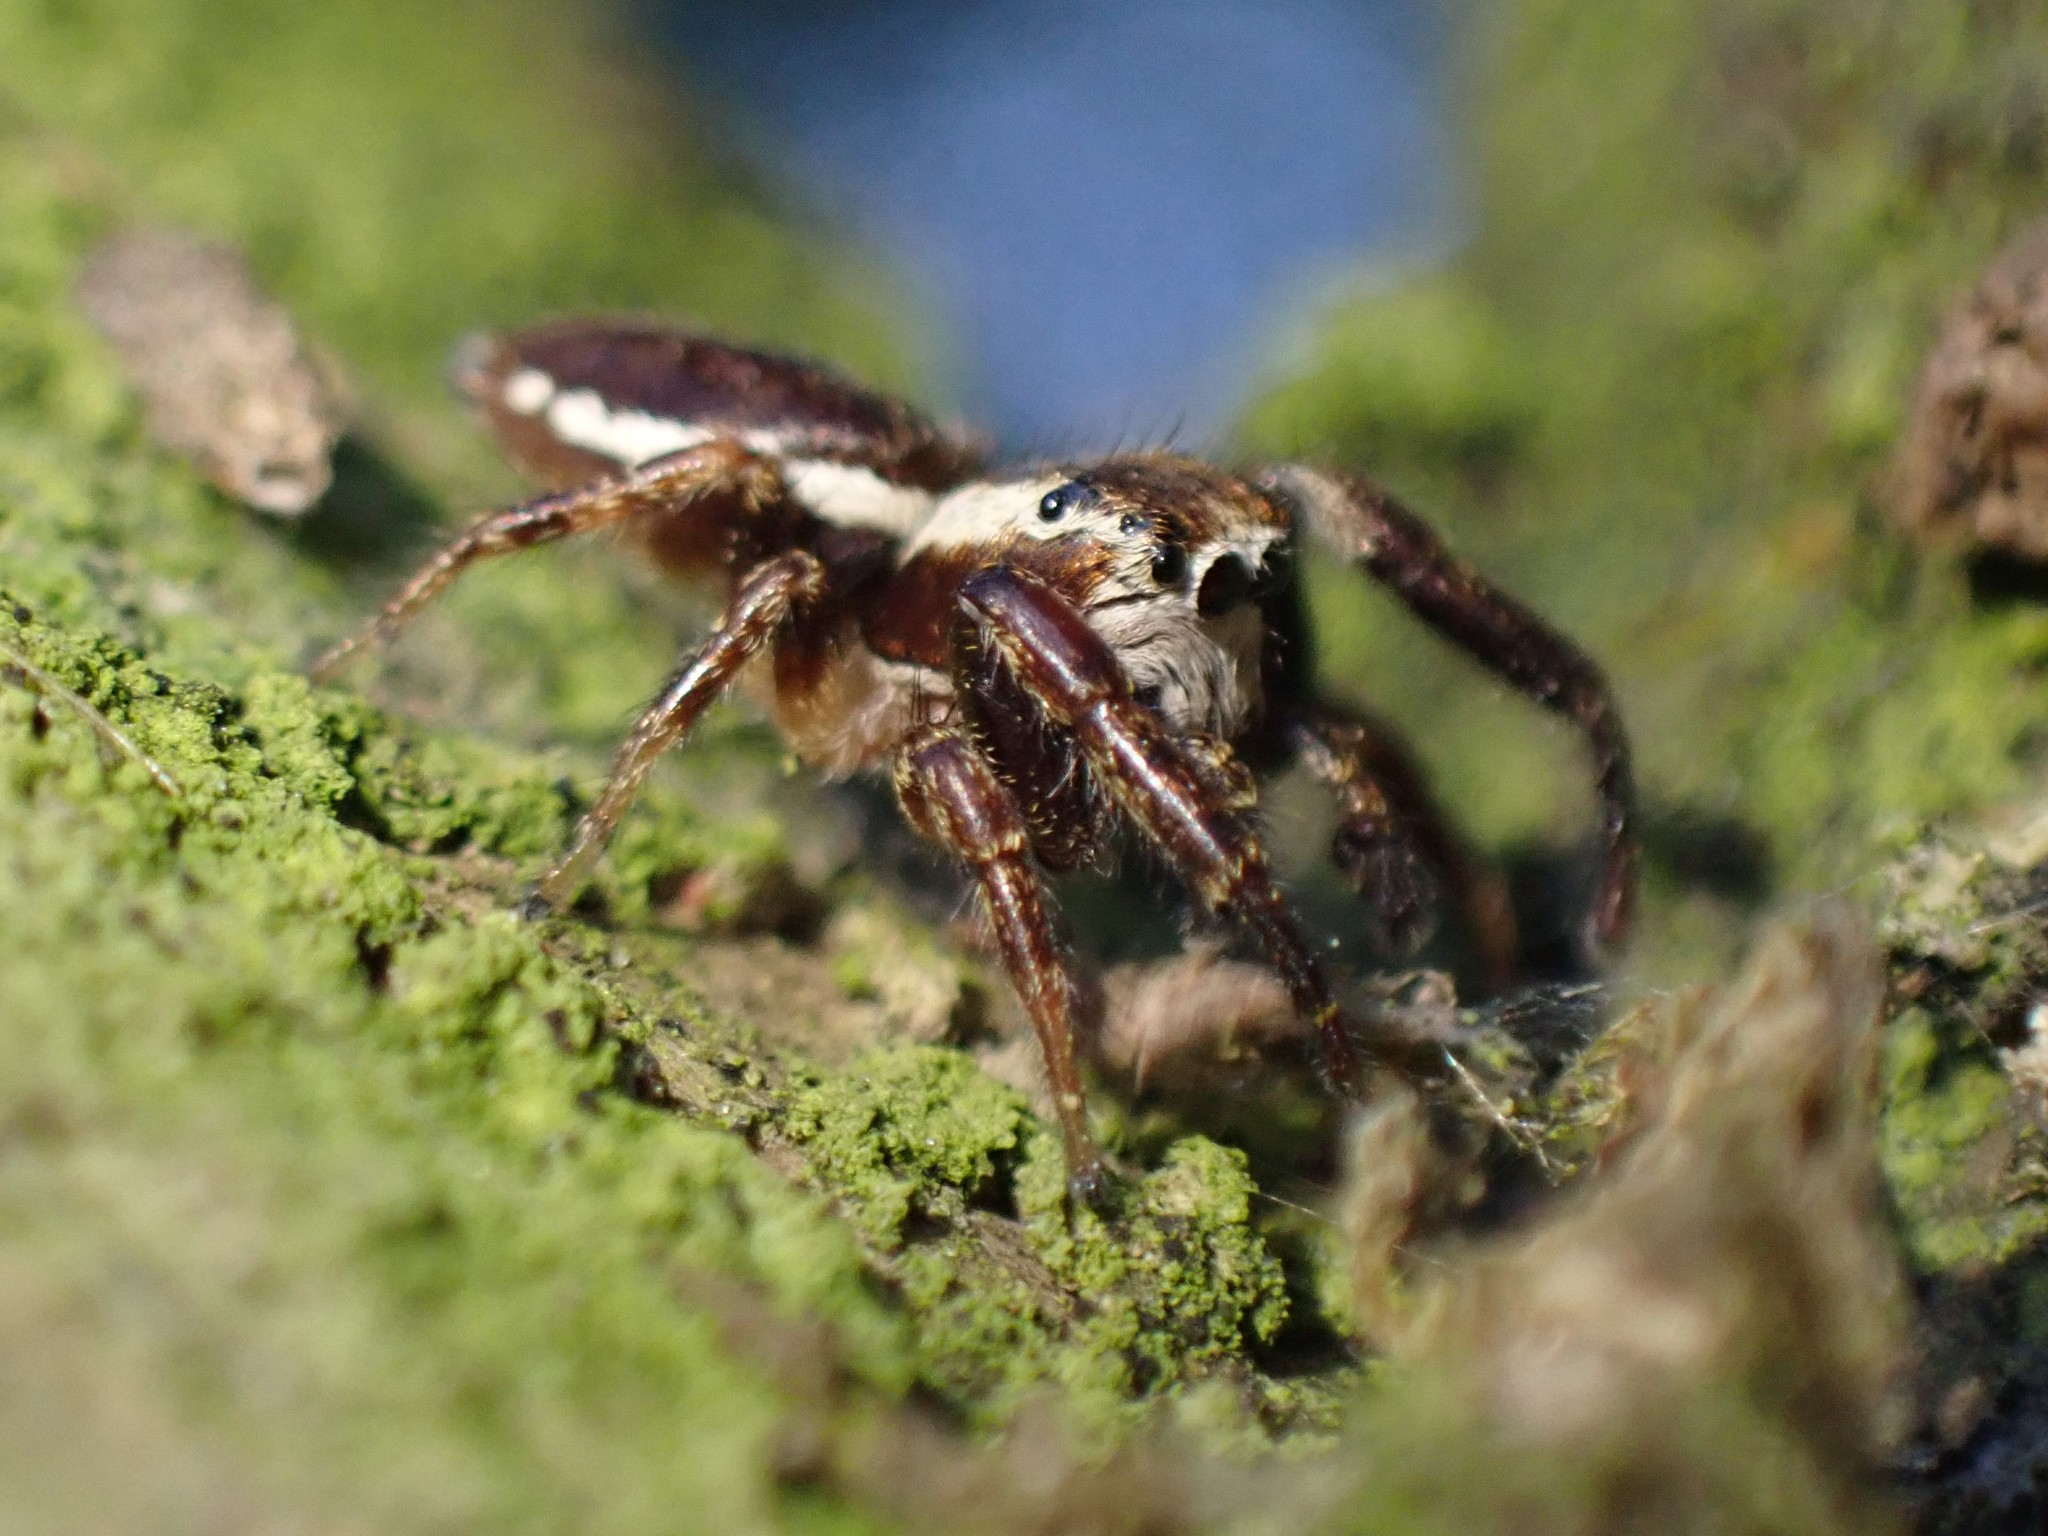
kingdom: Animalia
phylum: Arthropoda
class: Arachnida
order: Araneae
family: Salticidae
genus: Phanias
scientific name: Phanias albeolus
